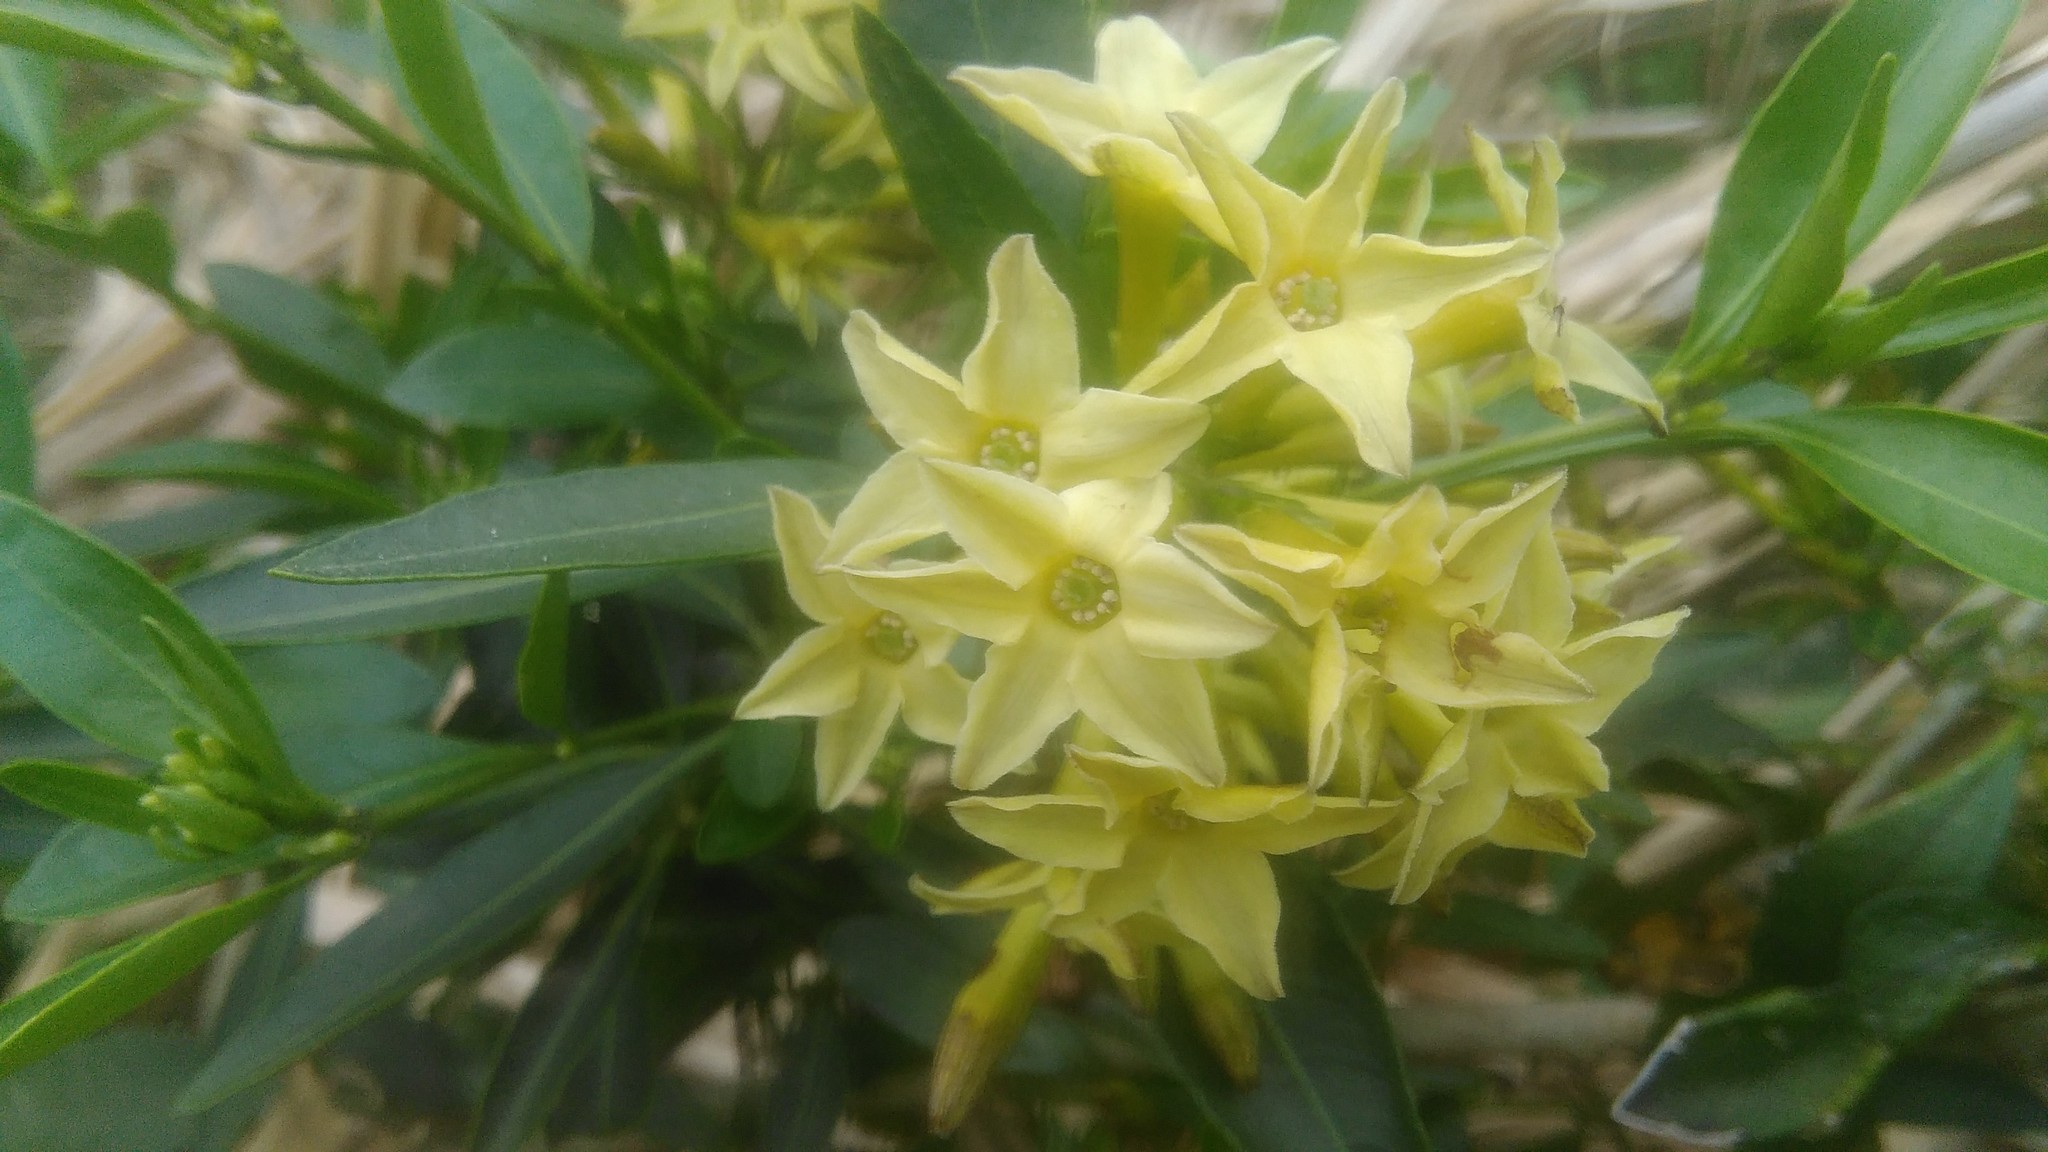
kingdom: Plantae
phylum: Tracheophyta
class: Magnoliopsida
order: Solanales
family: Solanaceae
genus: Cestrum
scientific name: Cestrum euanthes
